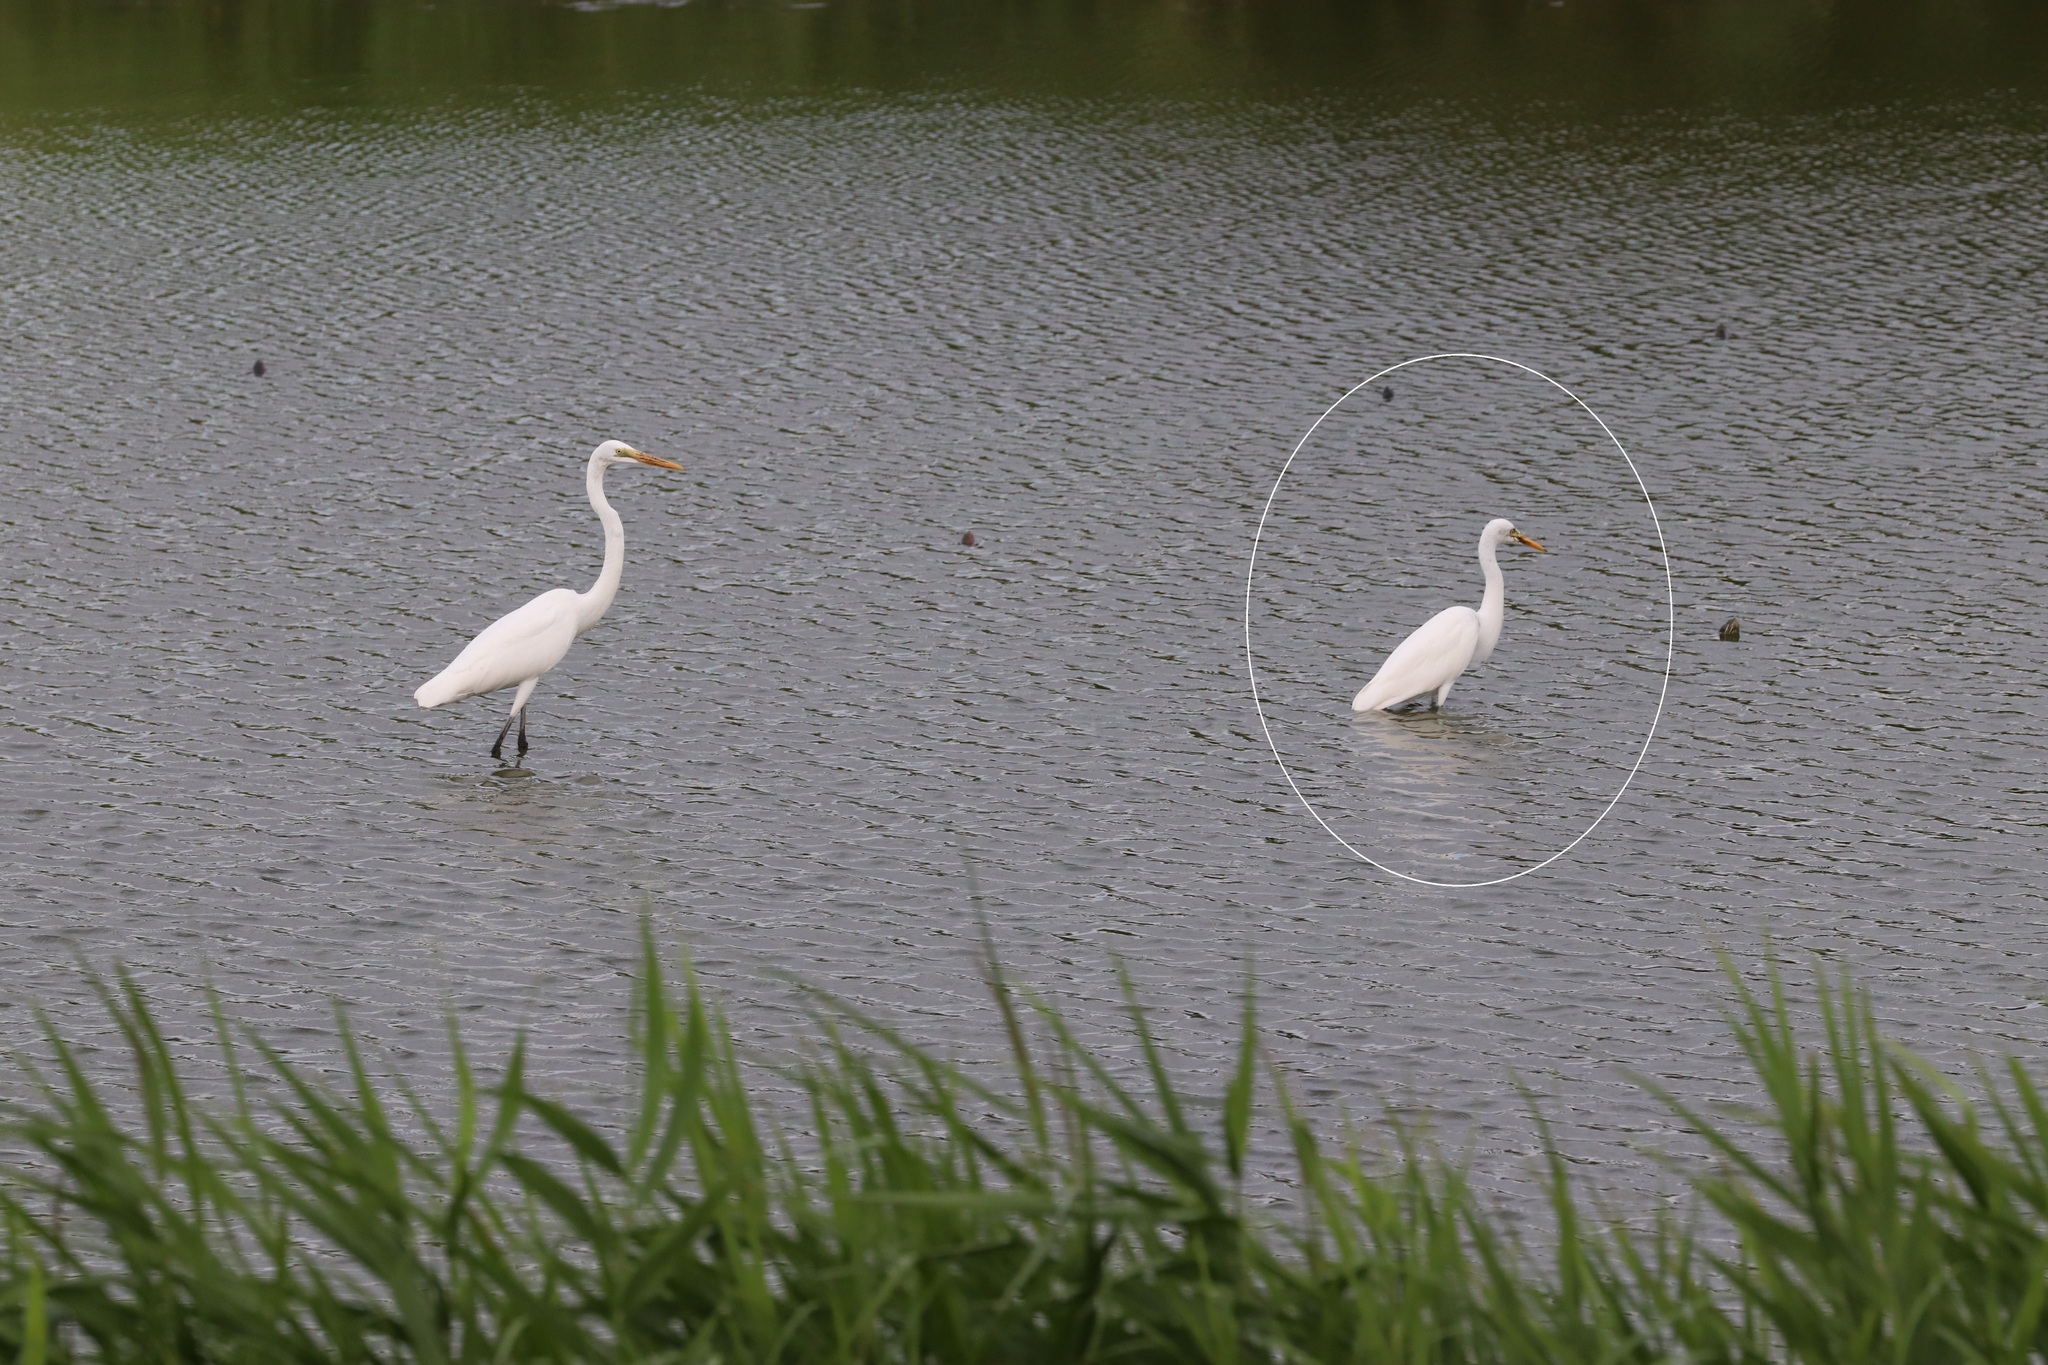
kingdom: Animalia
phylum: Chordata
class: Aves
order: Pelecaniformes
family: Ardeidae
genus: Egretta
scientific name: Egretta intermedia
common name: Intermediate egret
